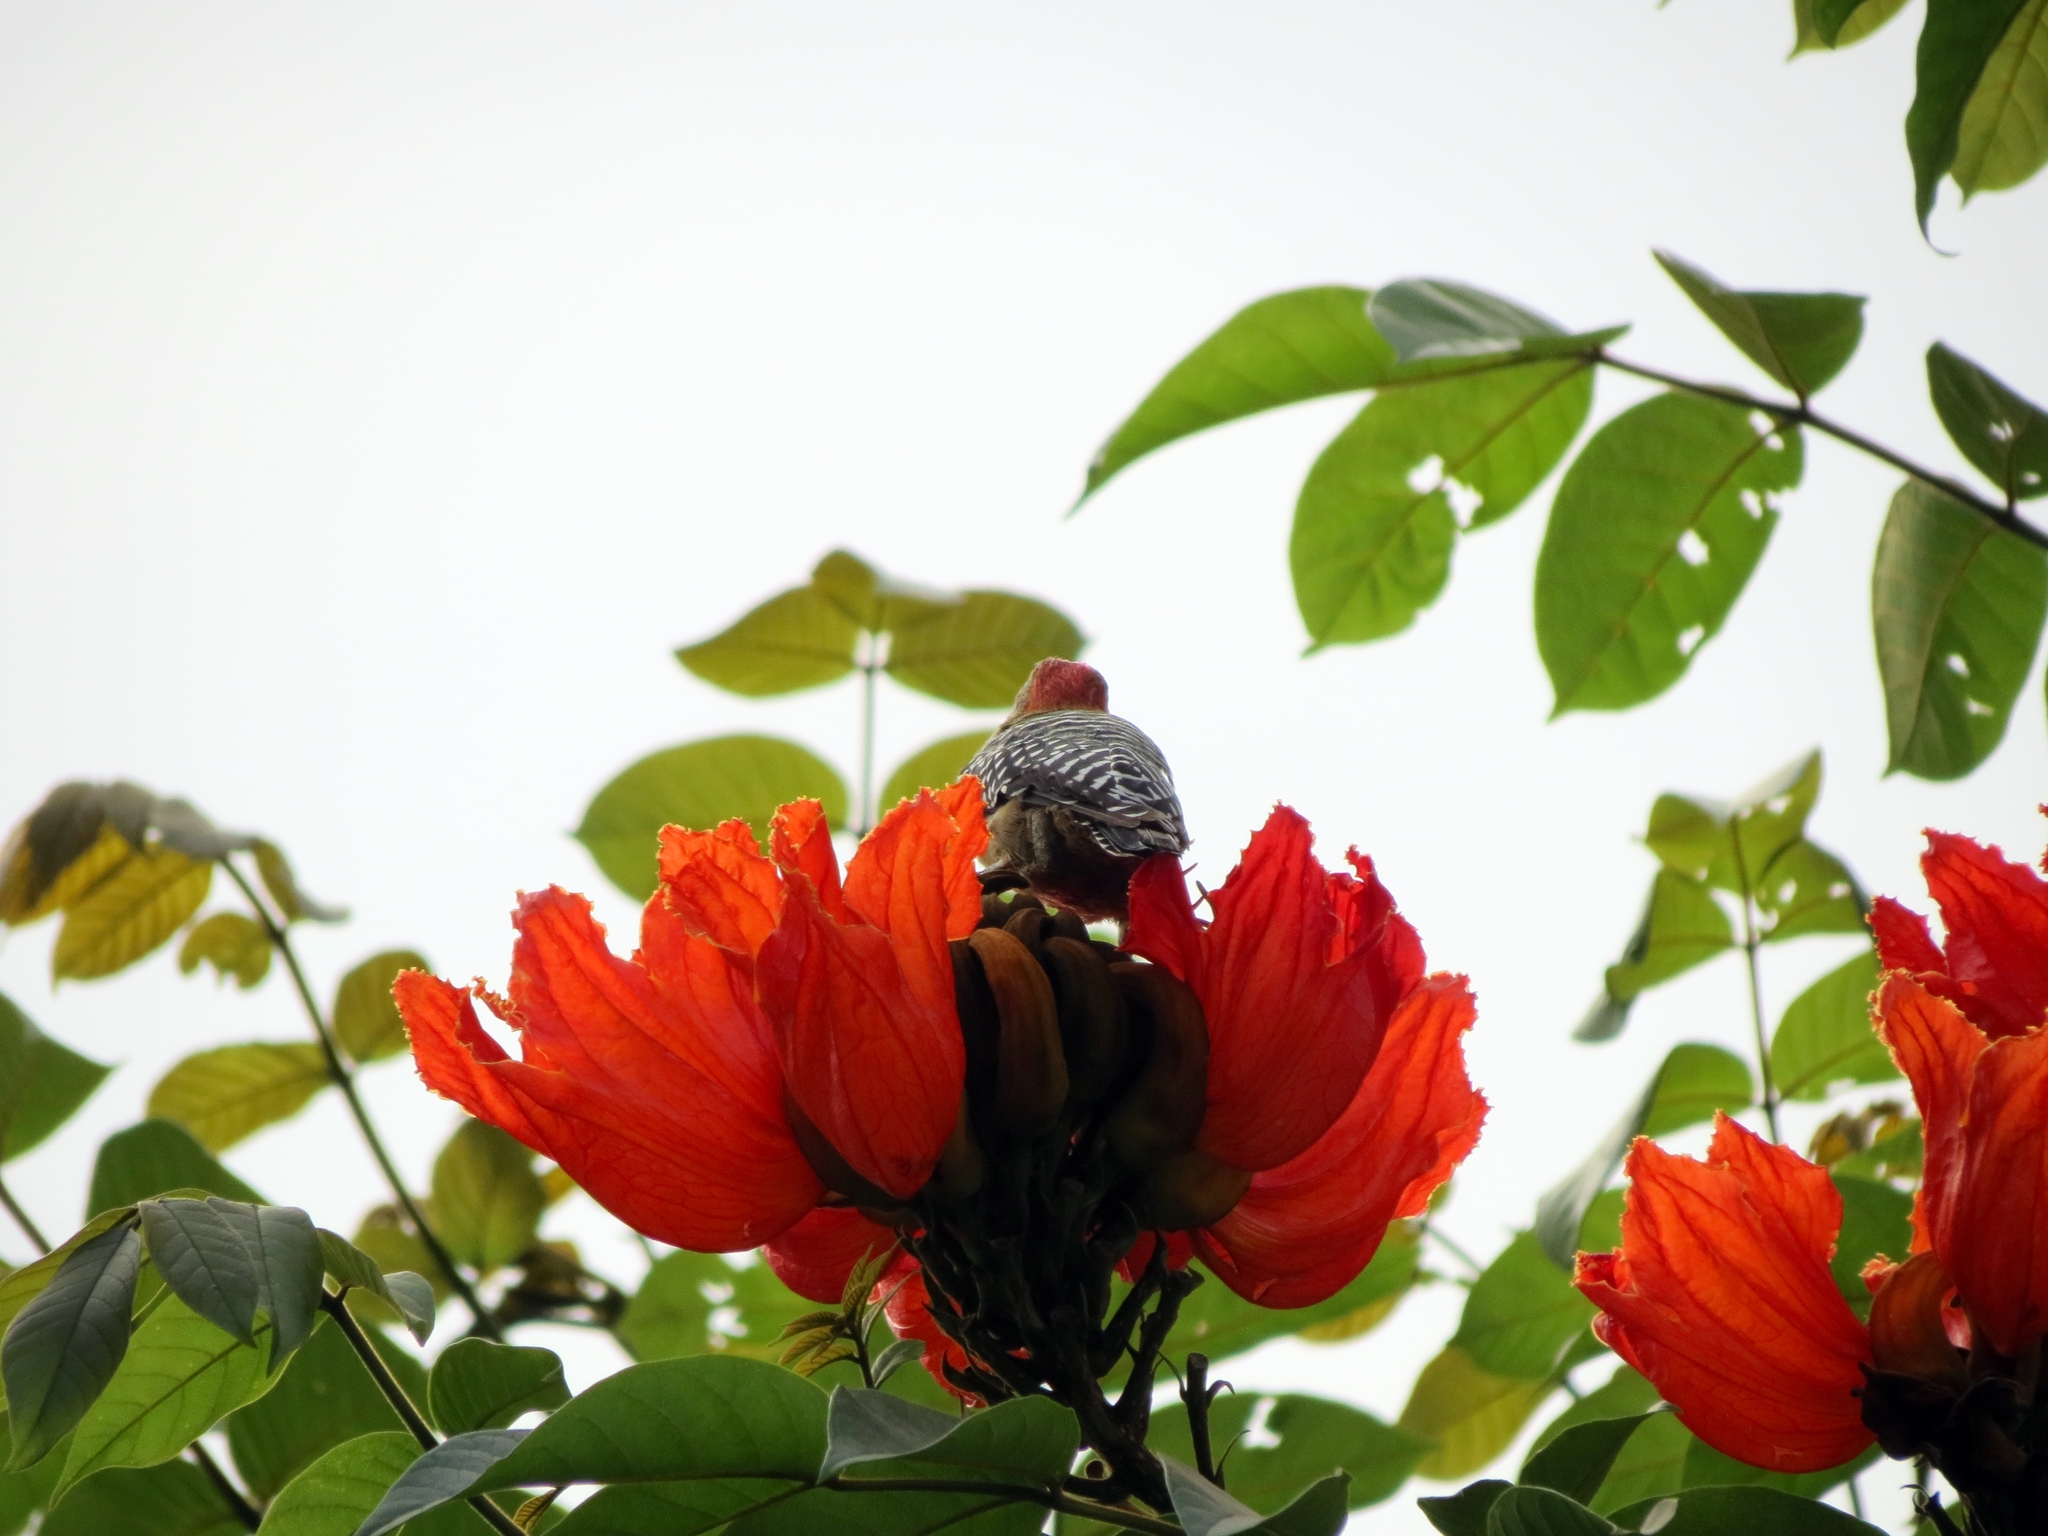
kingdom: Animalia
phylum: Chordata
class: Aves
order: Piciformes
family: Picidae
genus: Melanerpes
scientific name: Melanerpes rubricapillus
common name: Red-crowned woodpecker
